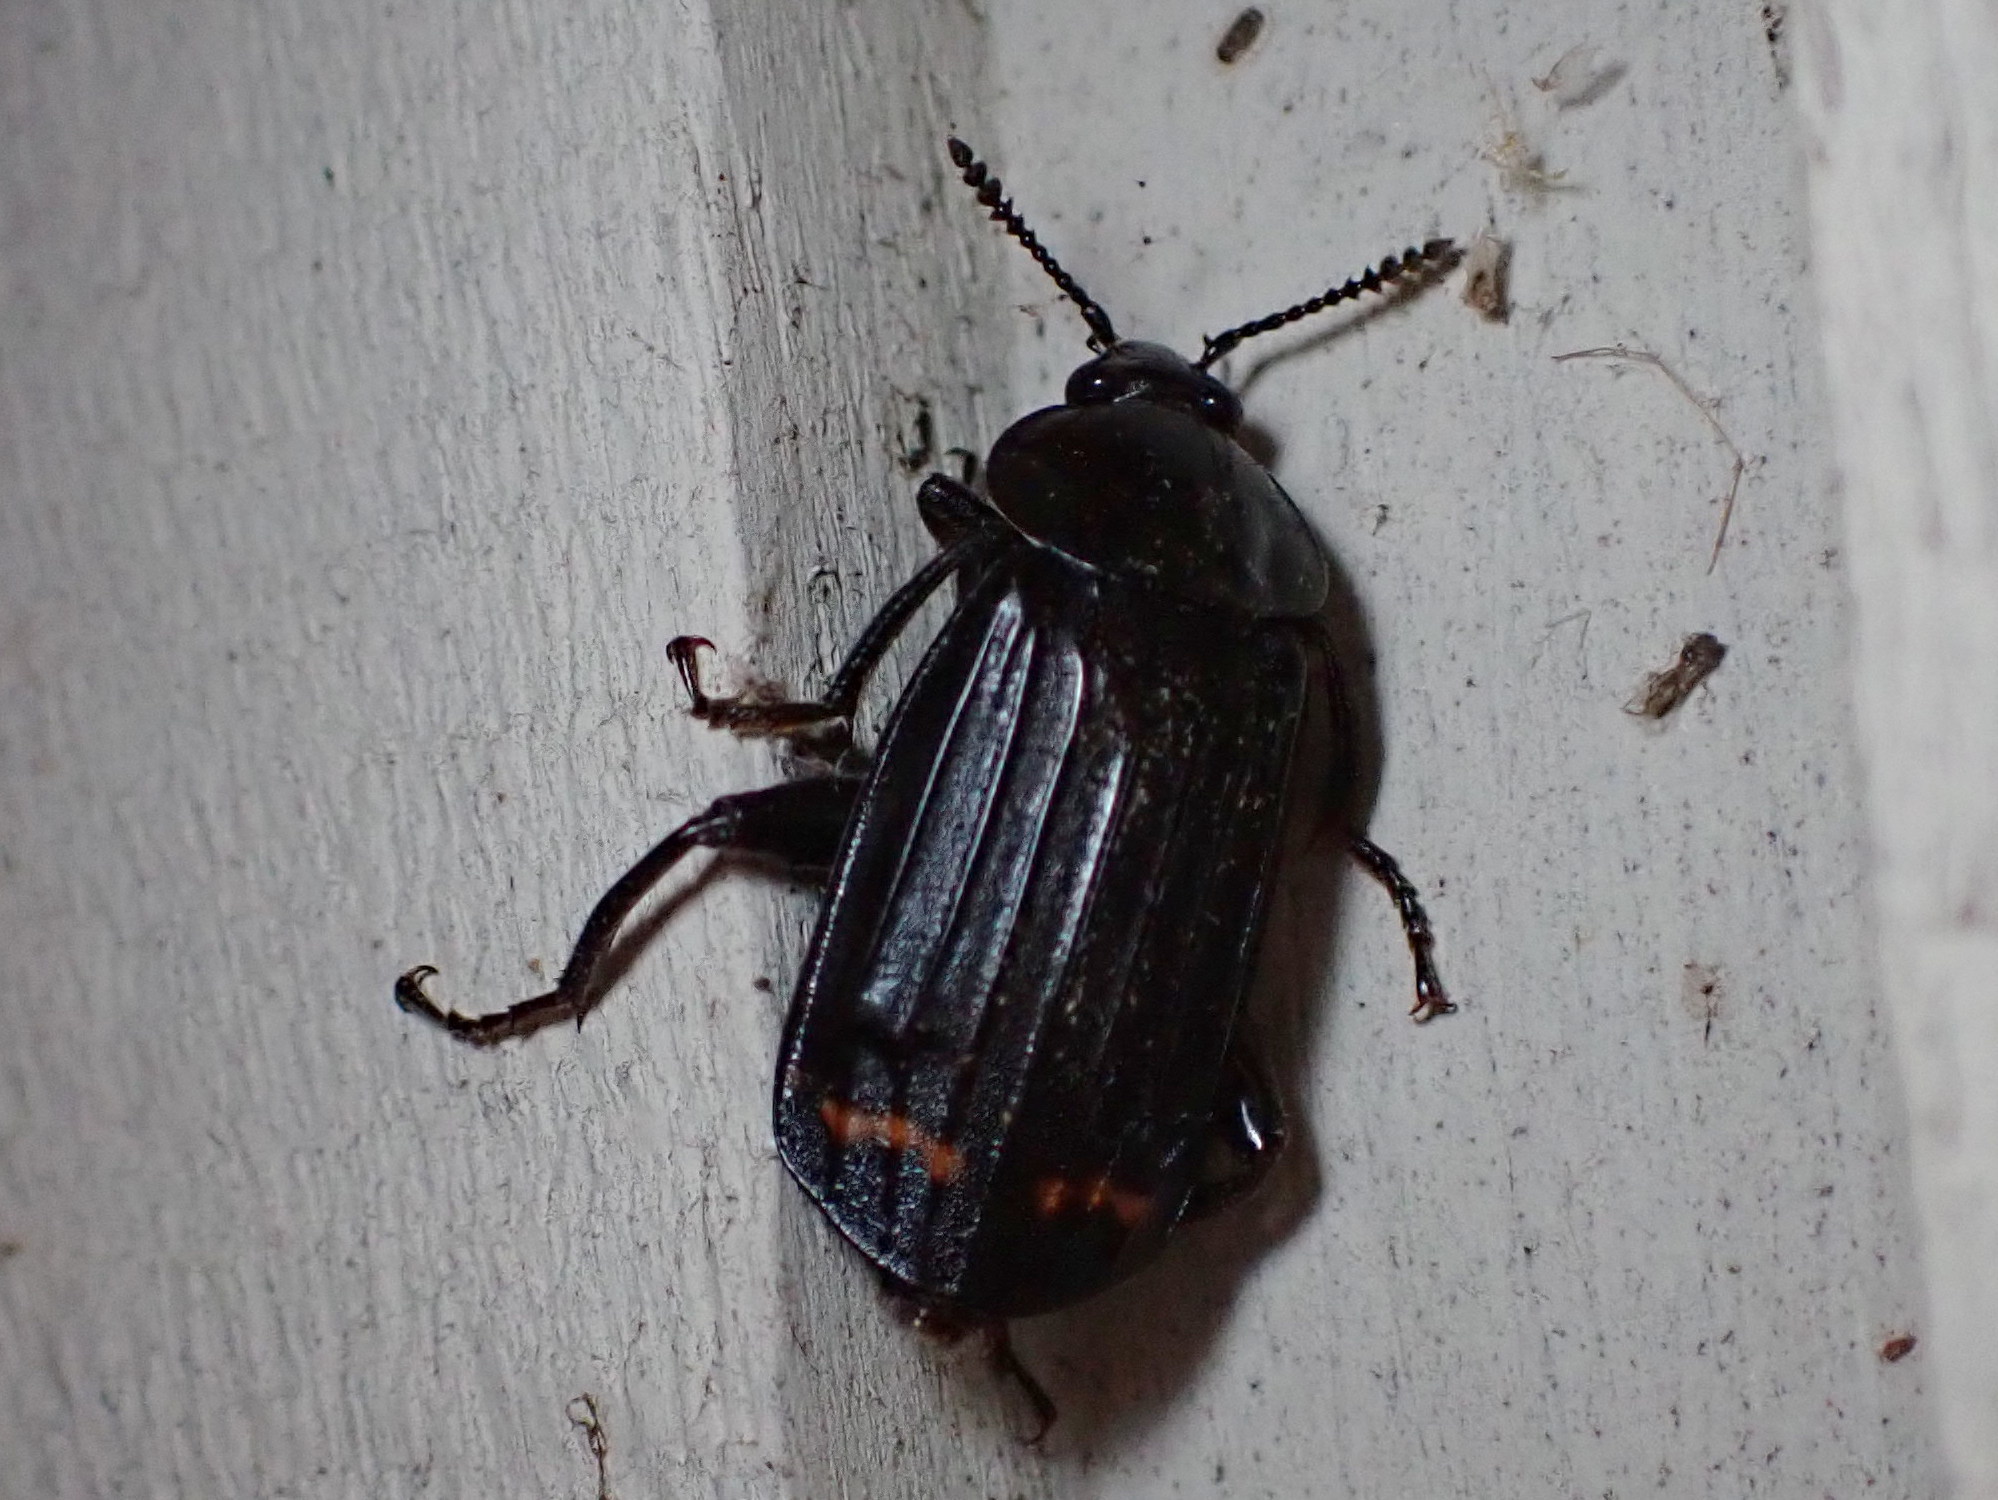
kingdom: Animalia
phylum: Arthropoda
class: Insecta
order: Coleoptera
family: Staphylinidae
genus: Necrodes
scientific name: Necrodes surinamensis
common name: Red-lined carrion beetle
